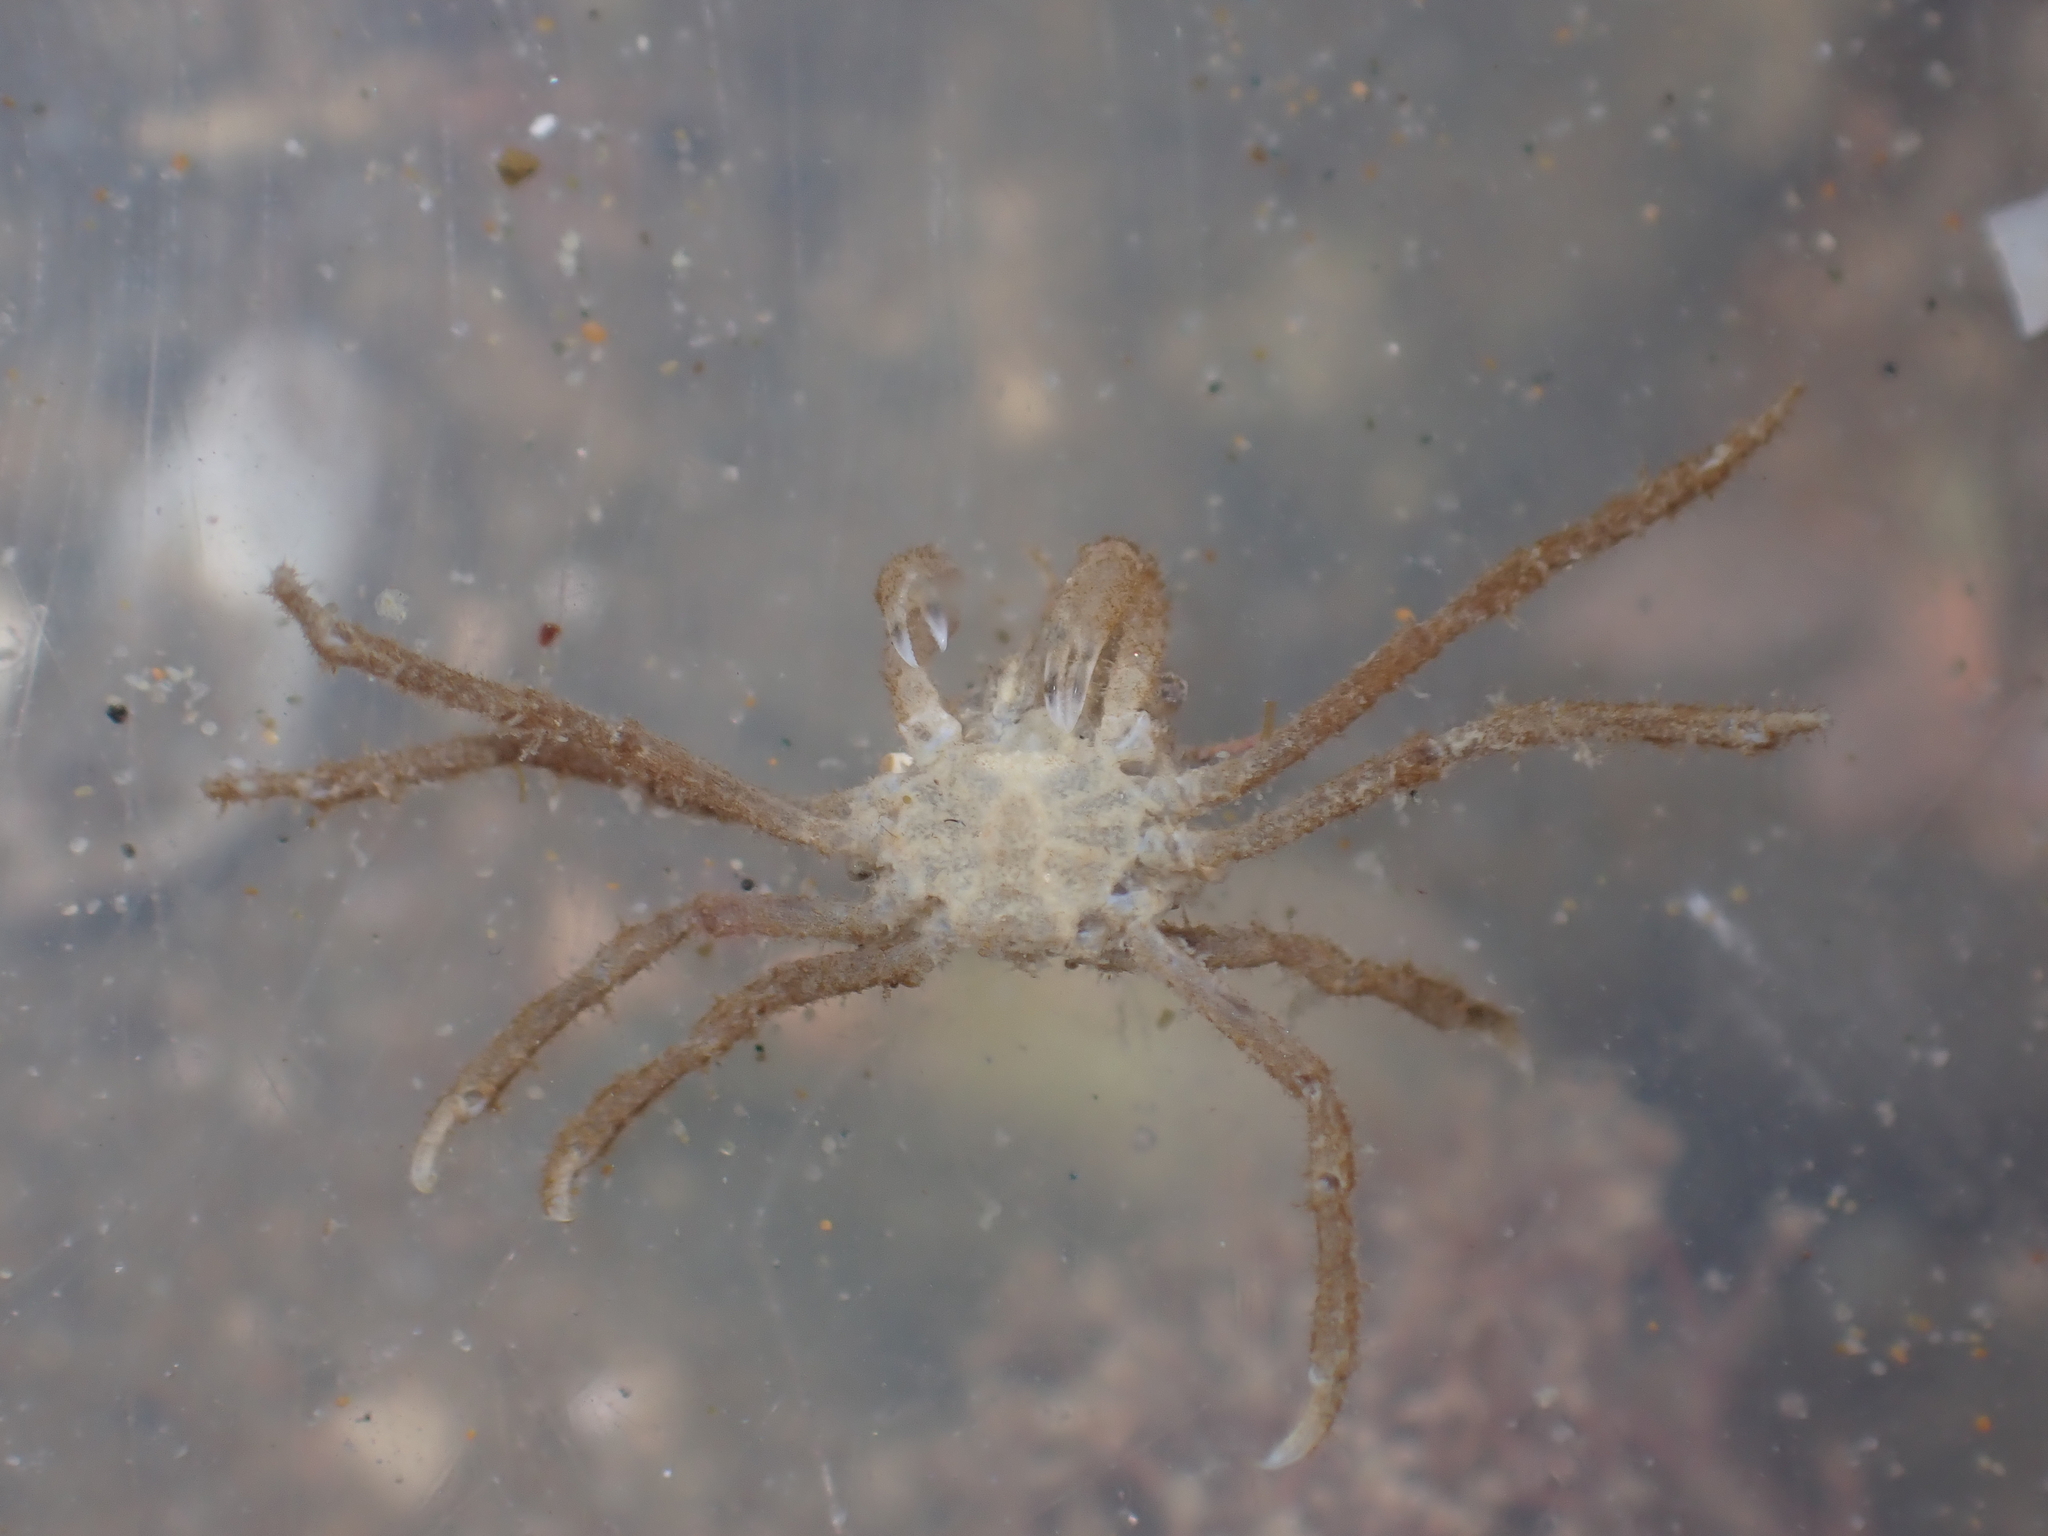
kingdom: Animalia
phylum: Arthropoda
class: Malacostraca
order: Decapoda
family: Inachoididae
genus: Pyromaia
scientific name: Pyromaia tuberculata
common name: Tuberculate pear crab
